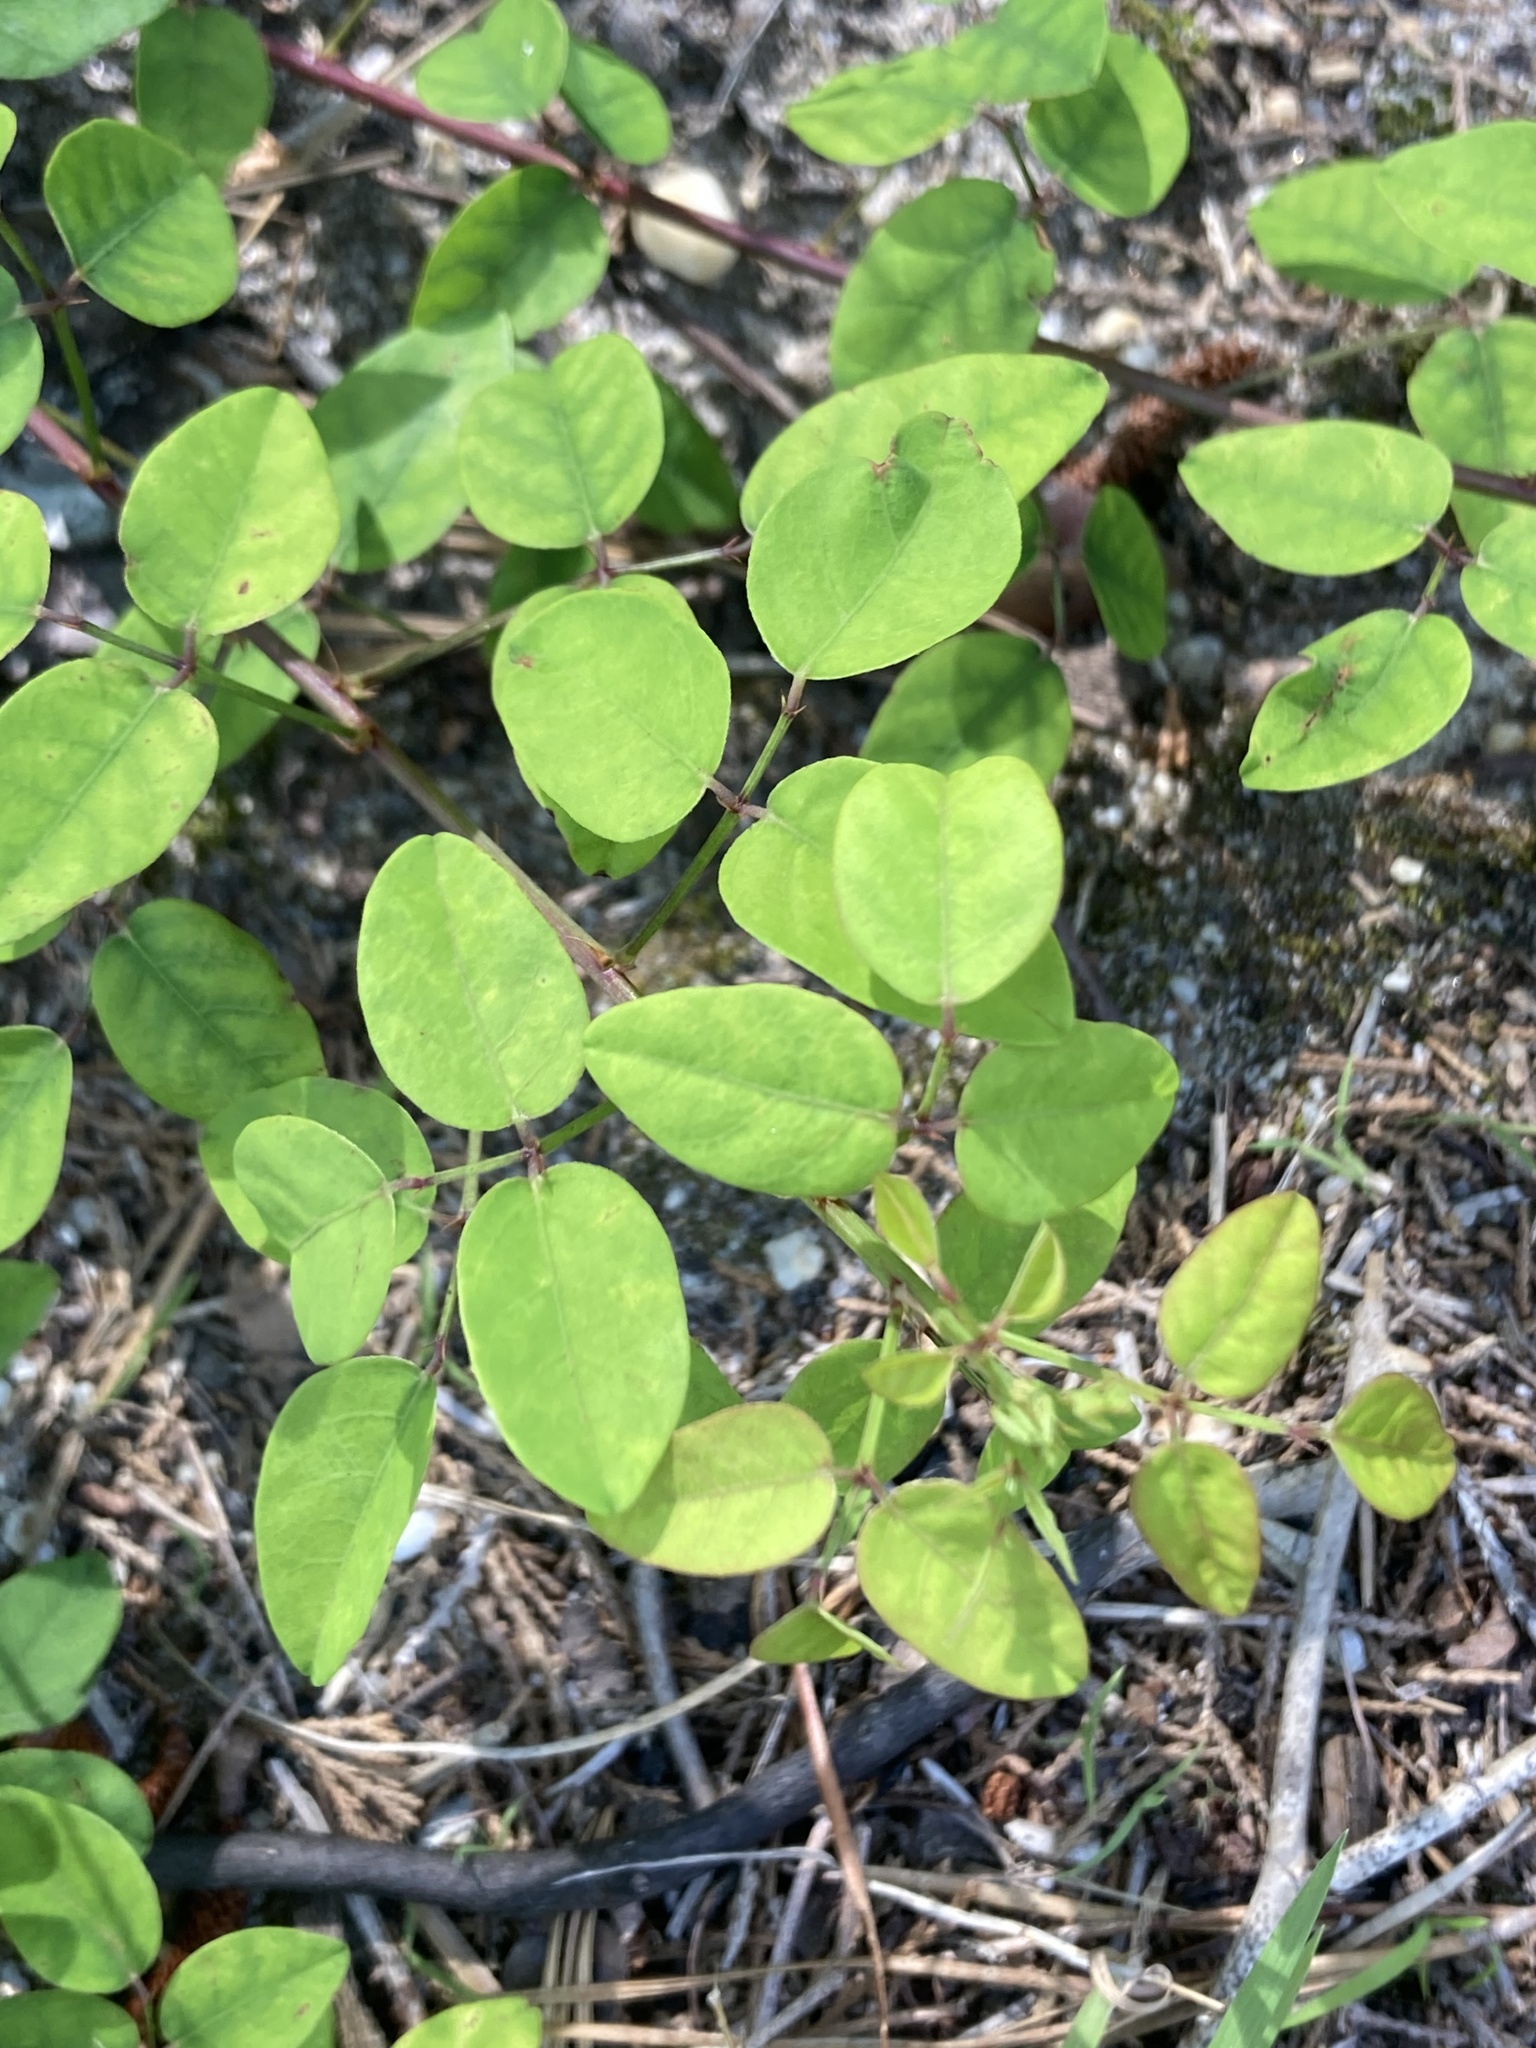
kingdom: Plantae
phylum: Tracheophyta
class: Magnoliopsida
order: Fabales
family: Fabaceae
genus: Desmodium
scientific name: Desmodium marilandicum
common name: Maryland tick-trefoil
